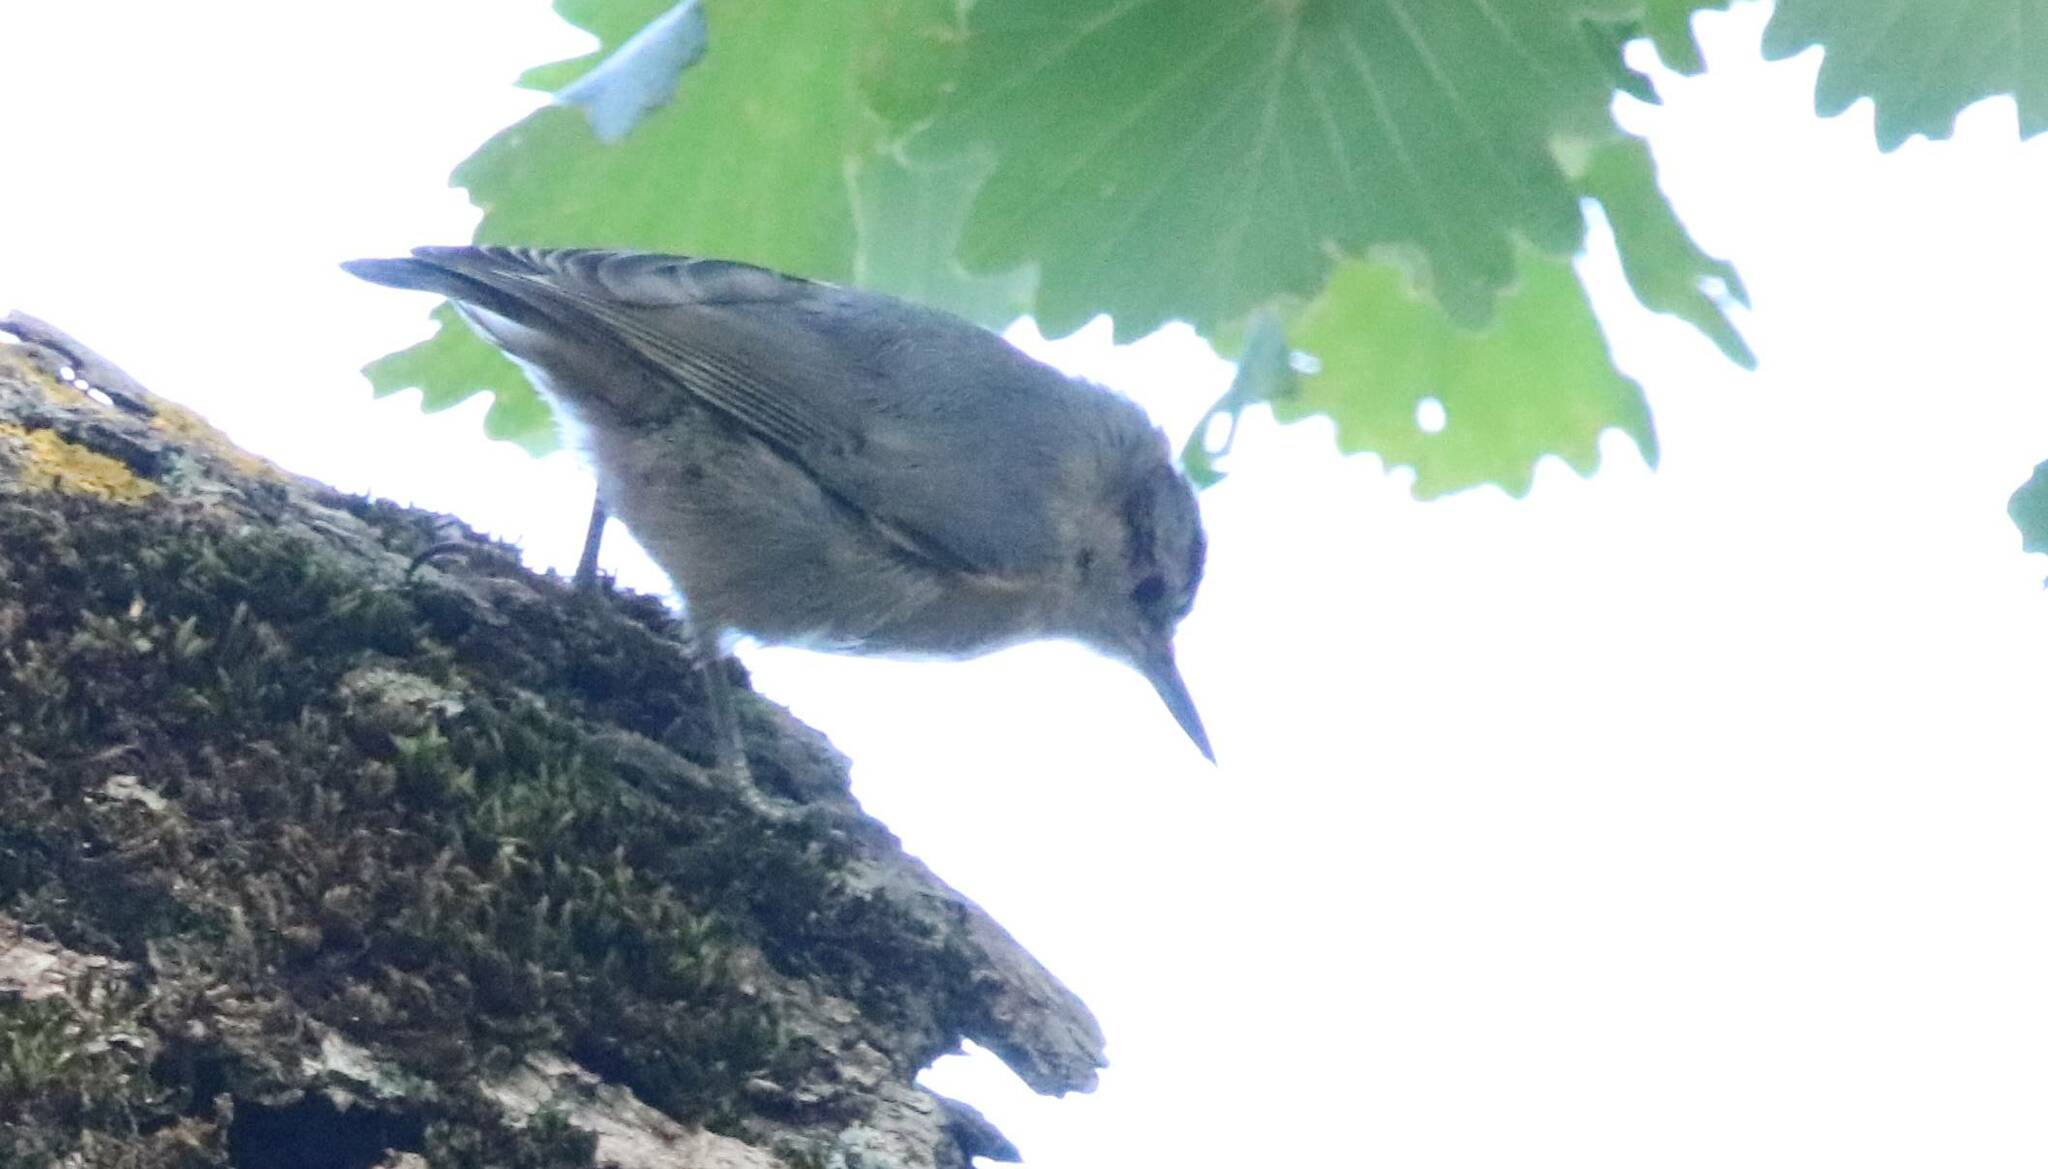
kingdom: Animalia
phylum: Chordata
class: Aves
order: Passeriformes
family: Sittidae
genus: Sitta
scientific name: Sitta ledanti
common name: Algerian nuthatch
